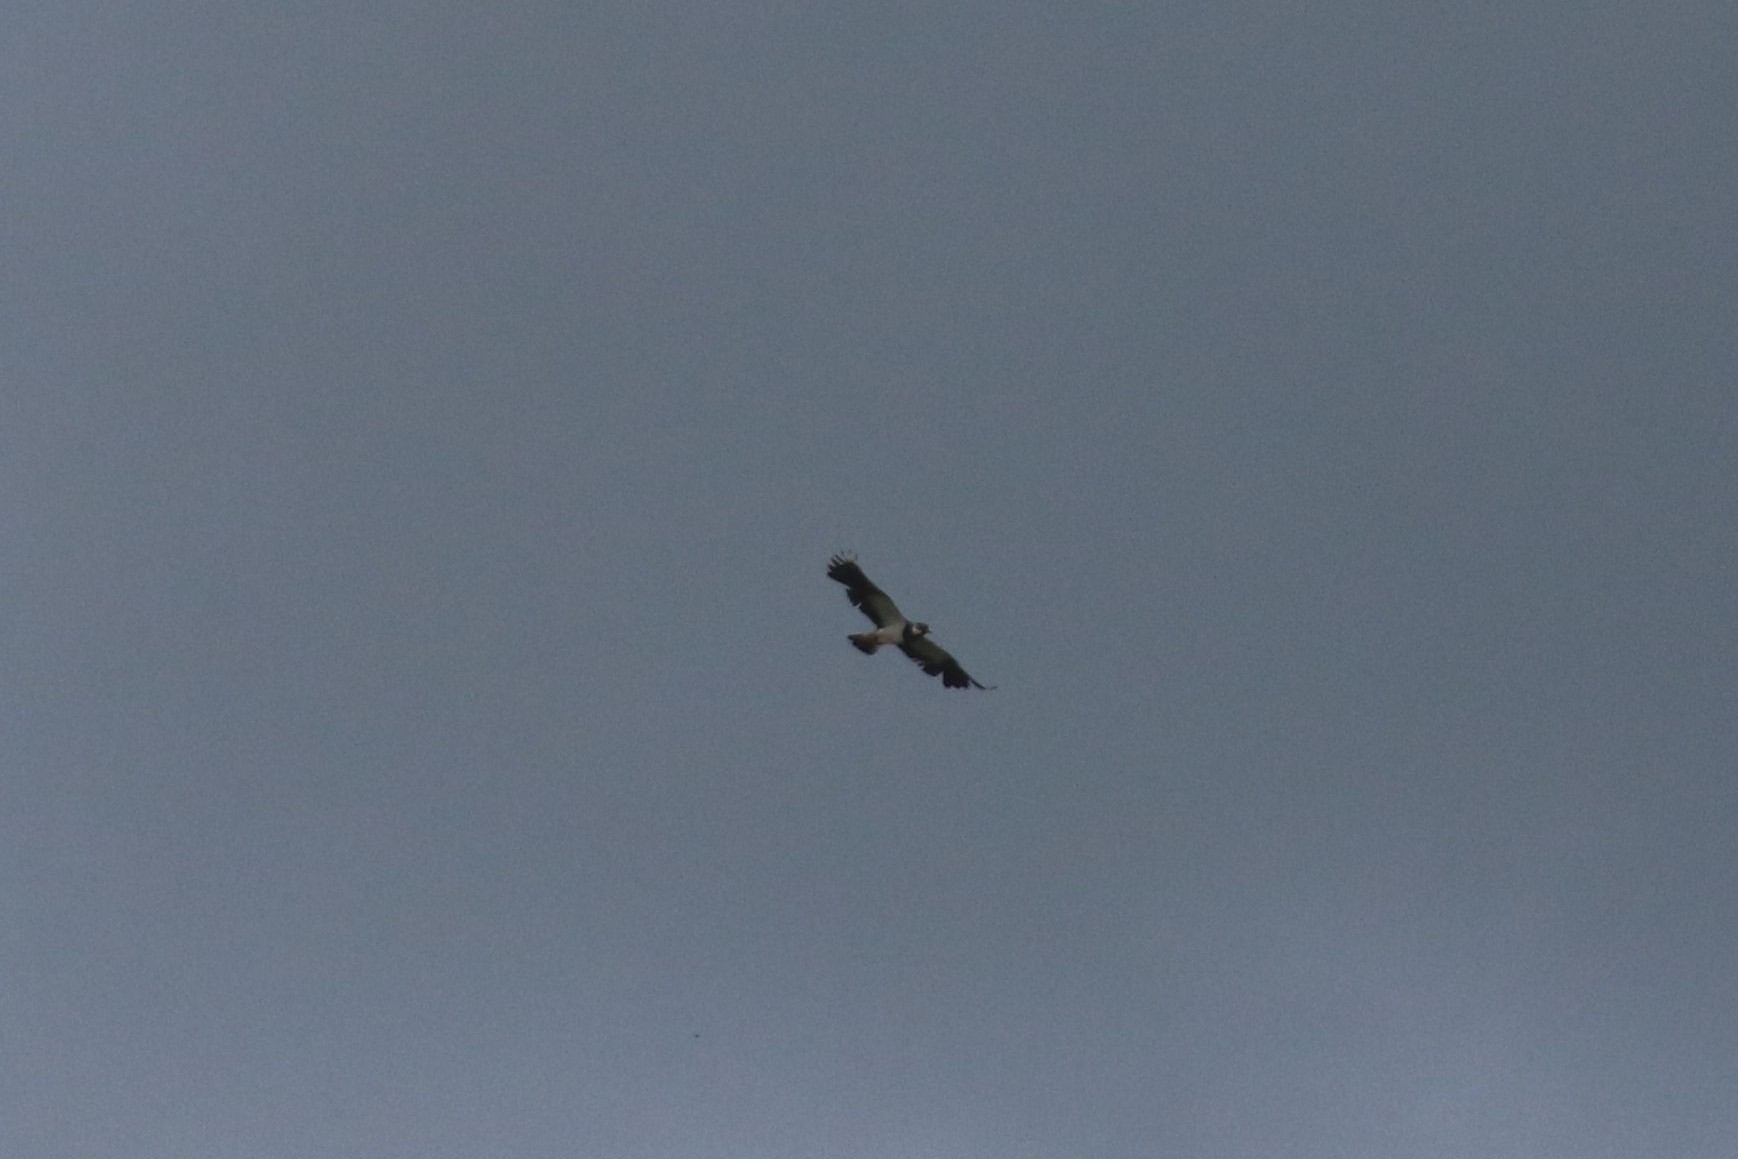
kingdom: Animalia
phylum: Chordata
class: Aves
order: Charadriiformes
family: Charadriidae
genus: Vanellus
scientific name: Vanellus vanellus
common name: Northern lapwing
